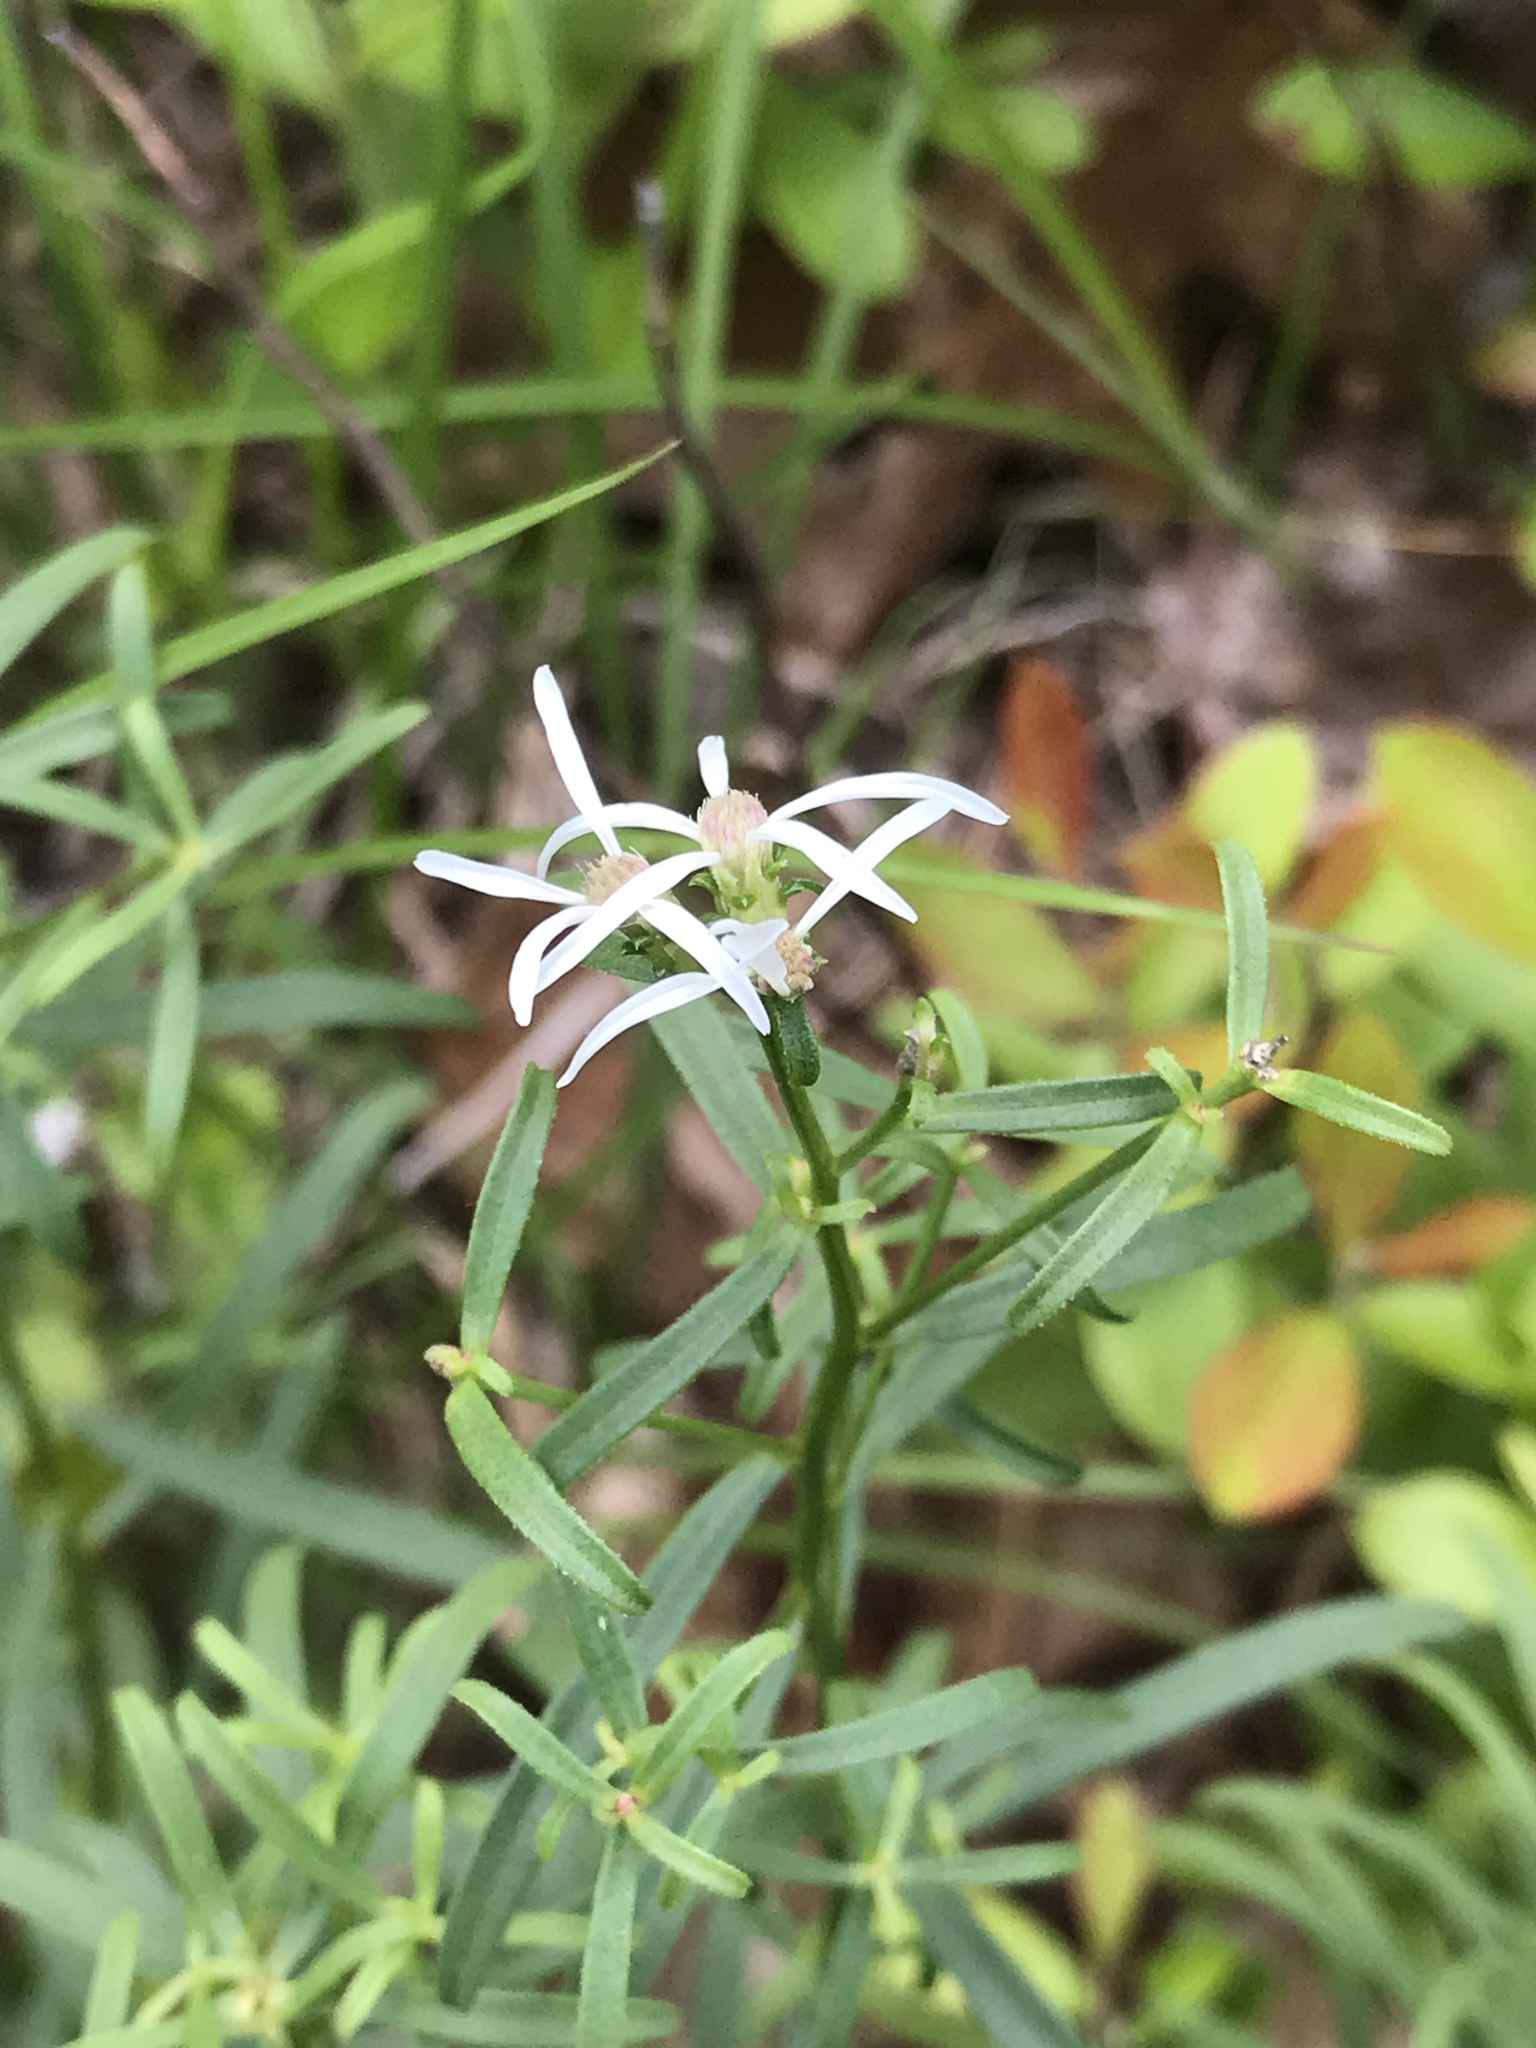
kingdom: Plantae
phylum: Tracheophyta
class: Magnoliopsida
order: Asterales
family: Asteraceae
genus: Sericocarpus
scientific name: Sericocarpus linifolius
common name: Narrow-leaf aster
